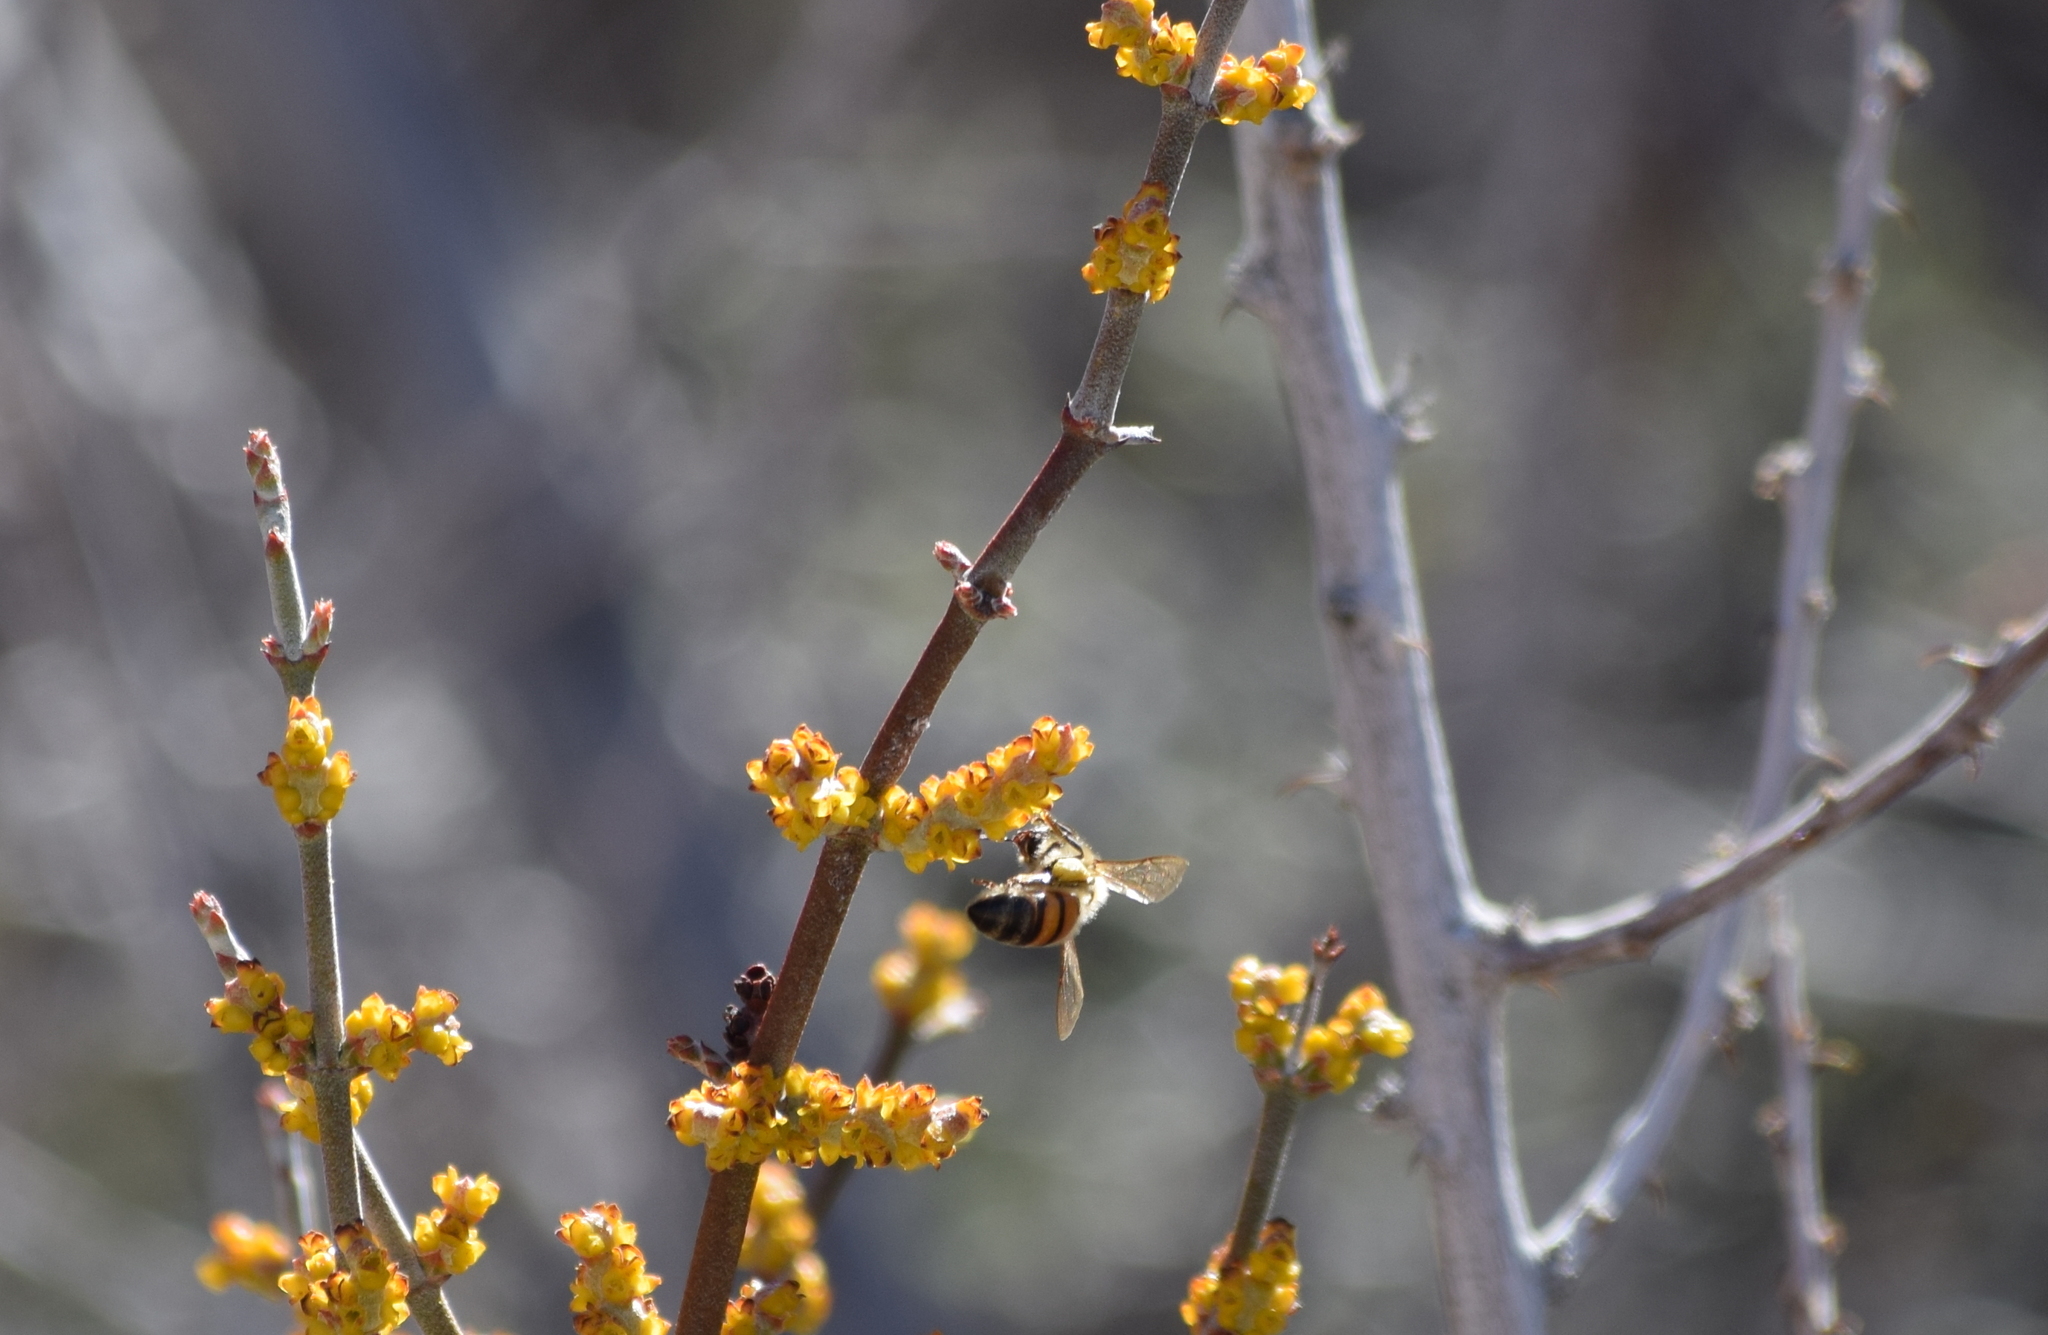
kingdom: Animalia
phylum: Arthropoda
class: Insecta
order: Hymenoptera
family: Apidae
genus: Apis
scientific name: Apis mellifera
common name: Honey bee
